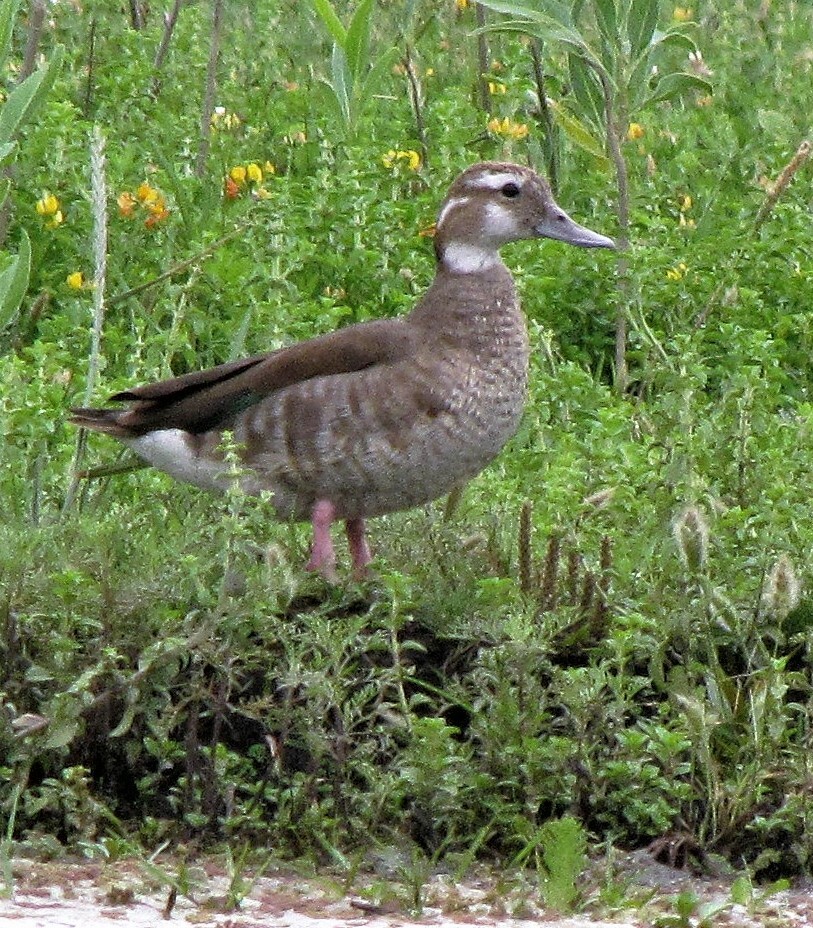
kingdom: Animalia
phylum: Chordata
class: Aves
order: Anseriformes
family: Anatidae
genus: Callonetta
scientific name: Callonetta leucophrys
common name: Ringed teal
